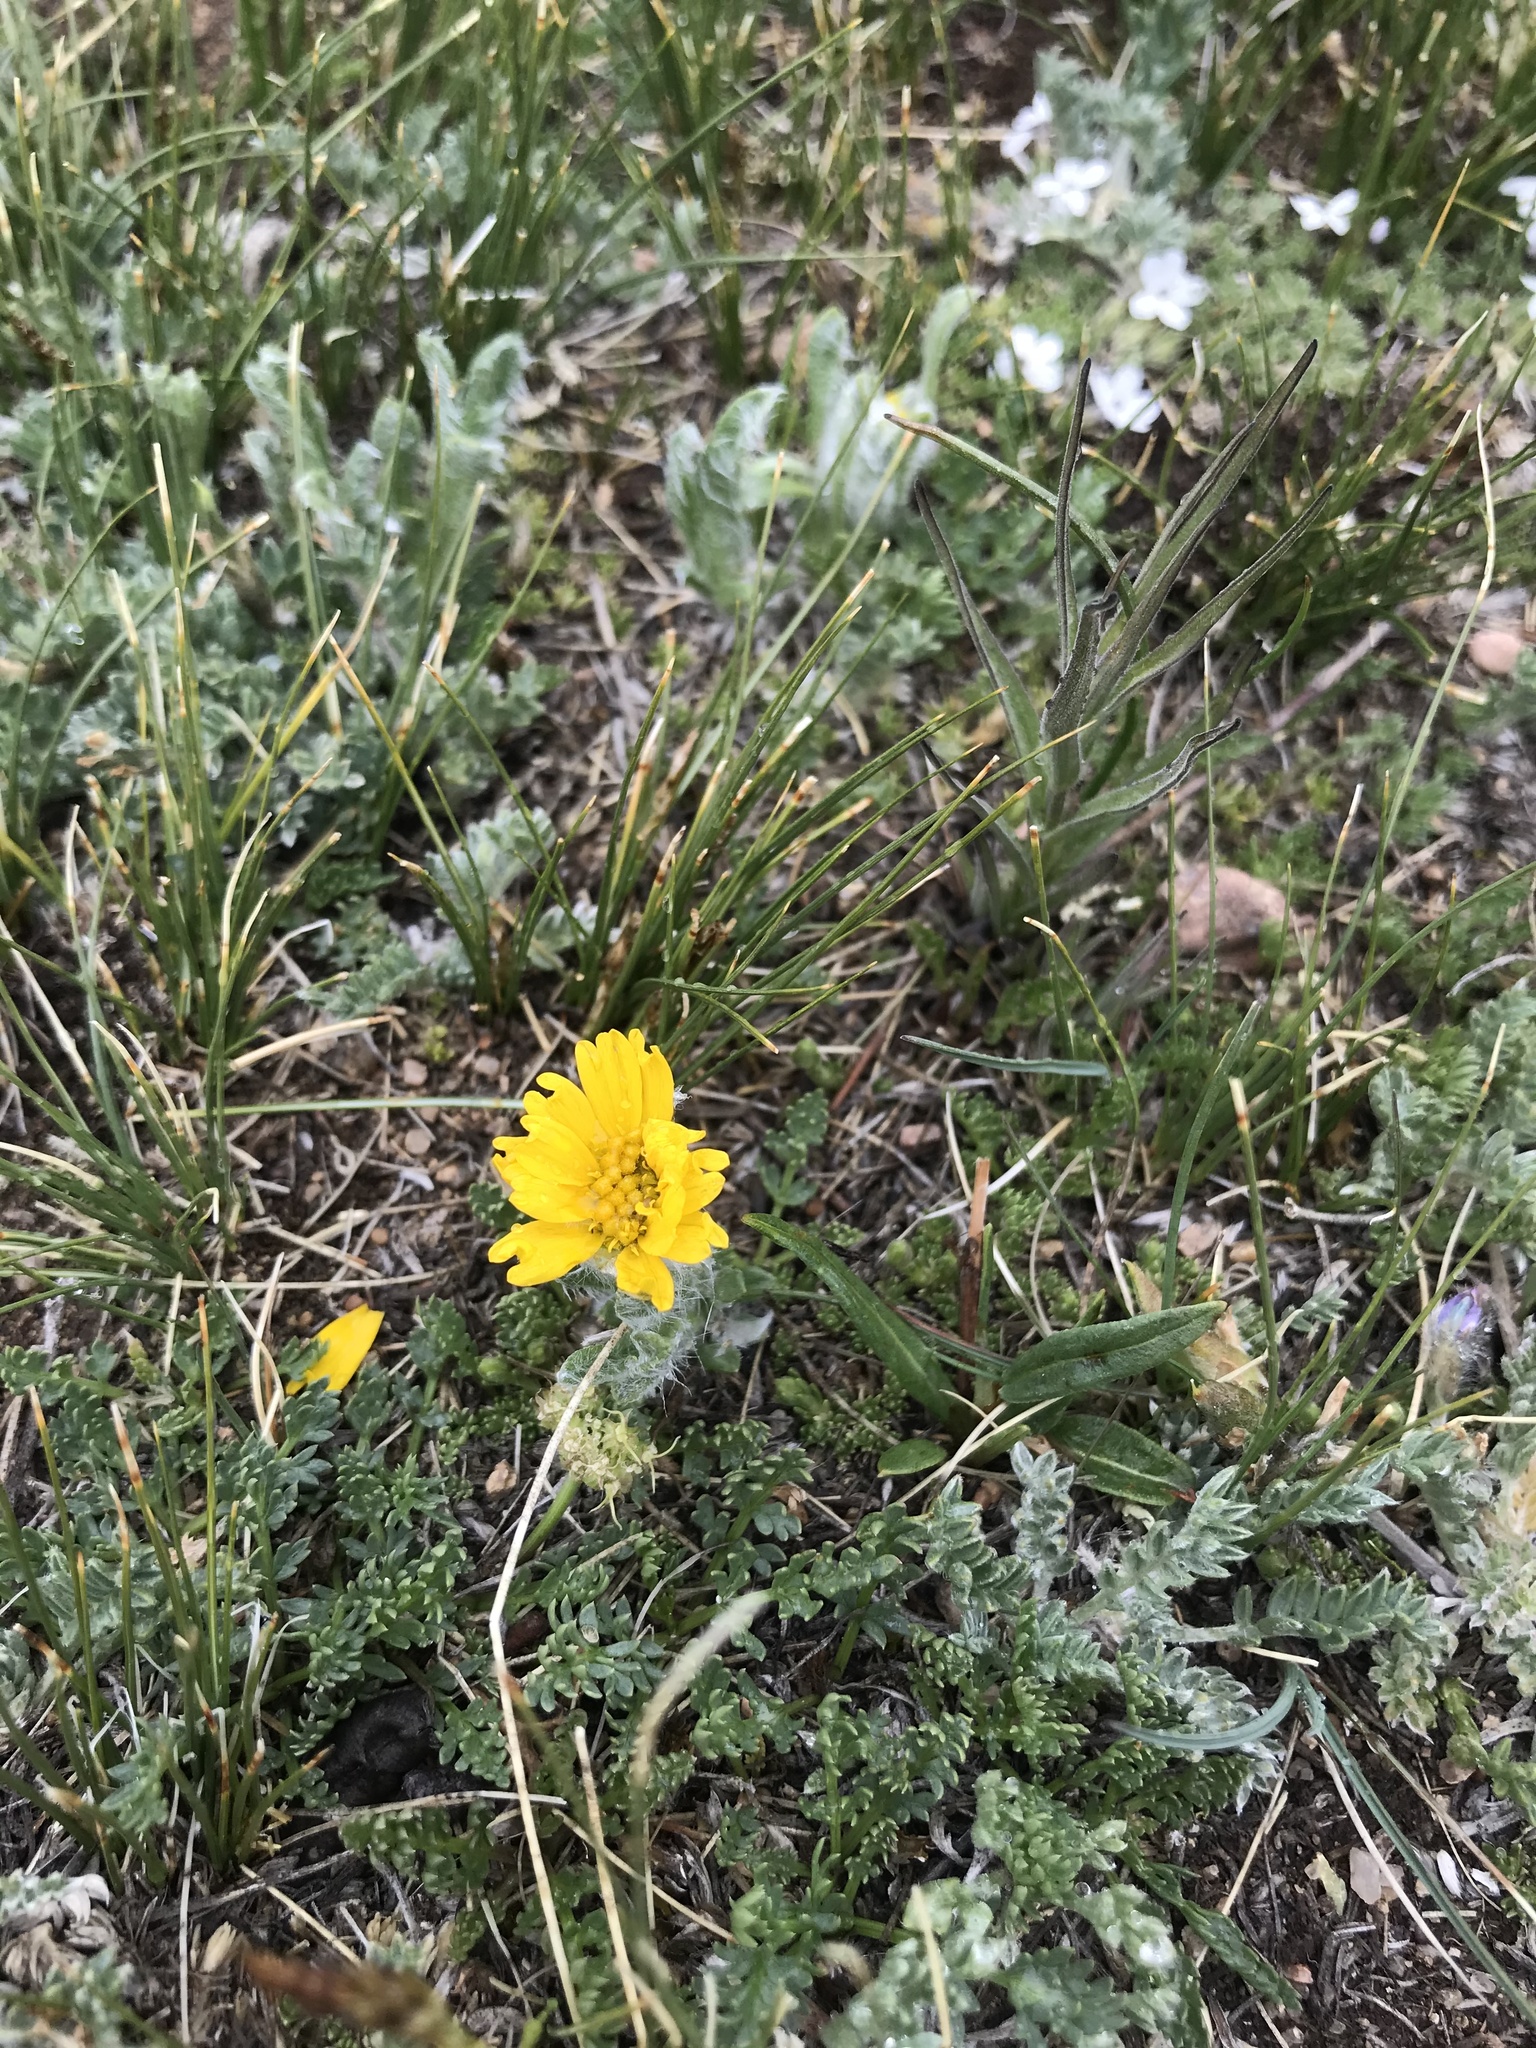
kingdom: Plantae
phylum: Tracheophyta
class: Magnoliopsida
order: Asterales
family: Asteraceae
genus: Hymenoxys
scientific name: Hymenoxys grandiflora
